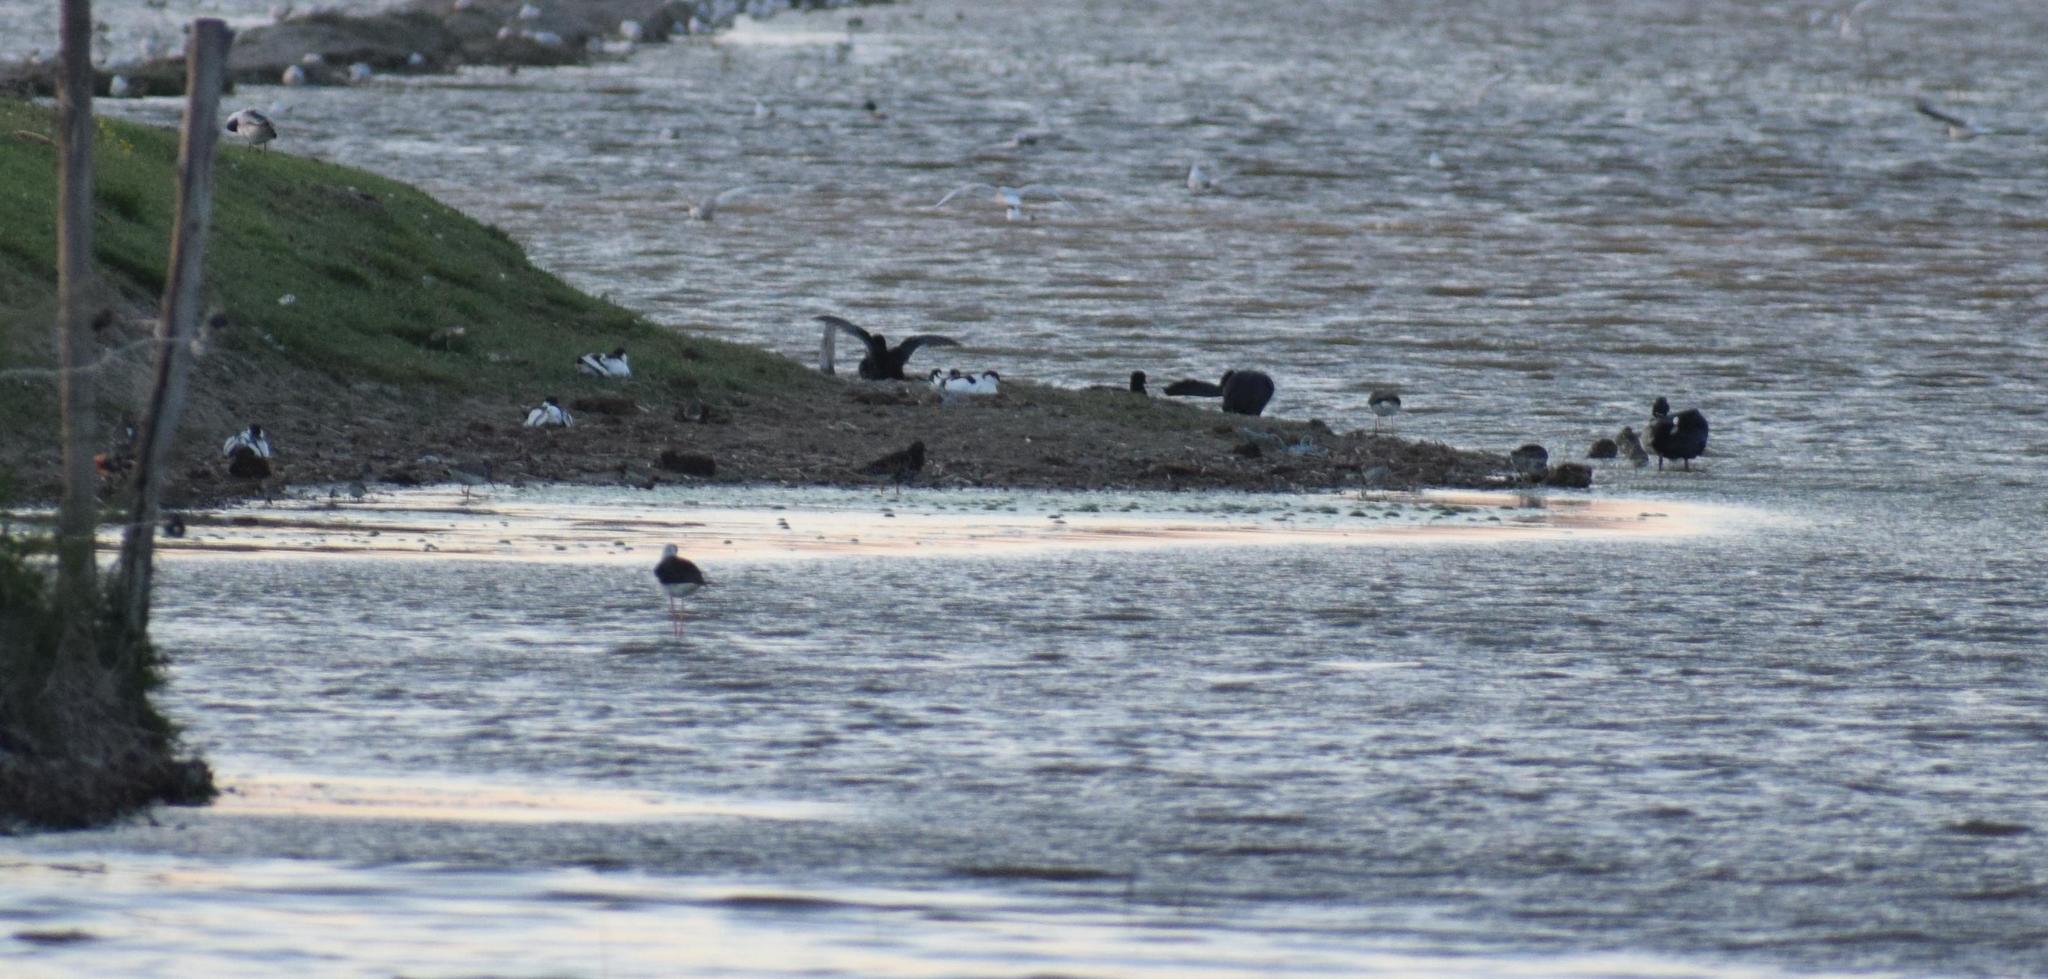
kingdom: Animalia
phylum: Chordata
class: Aves
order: Charadriiformes
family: Recurvirostridae
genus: Recurvirostra
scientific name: Recurvirostra avosetta
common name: Pied avocet
